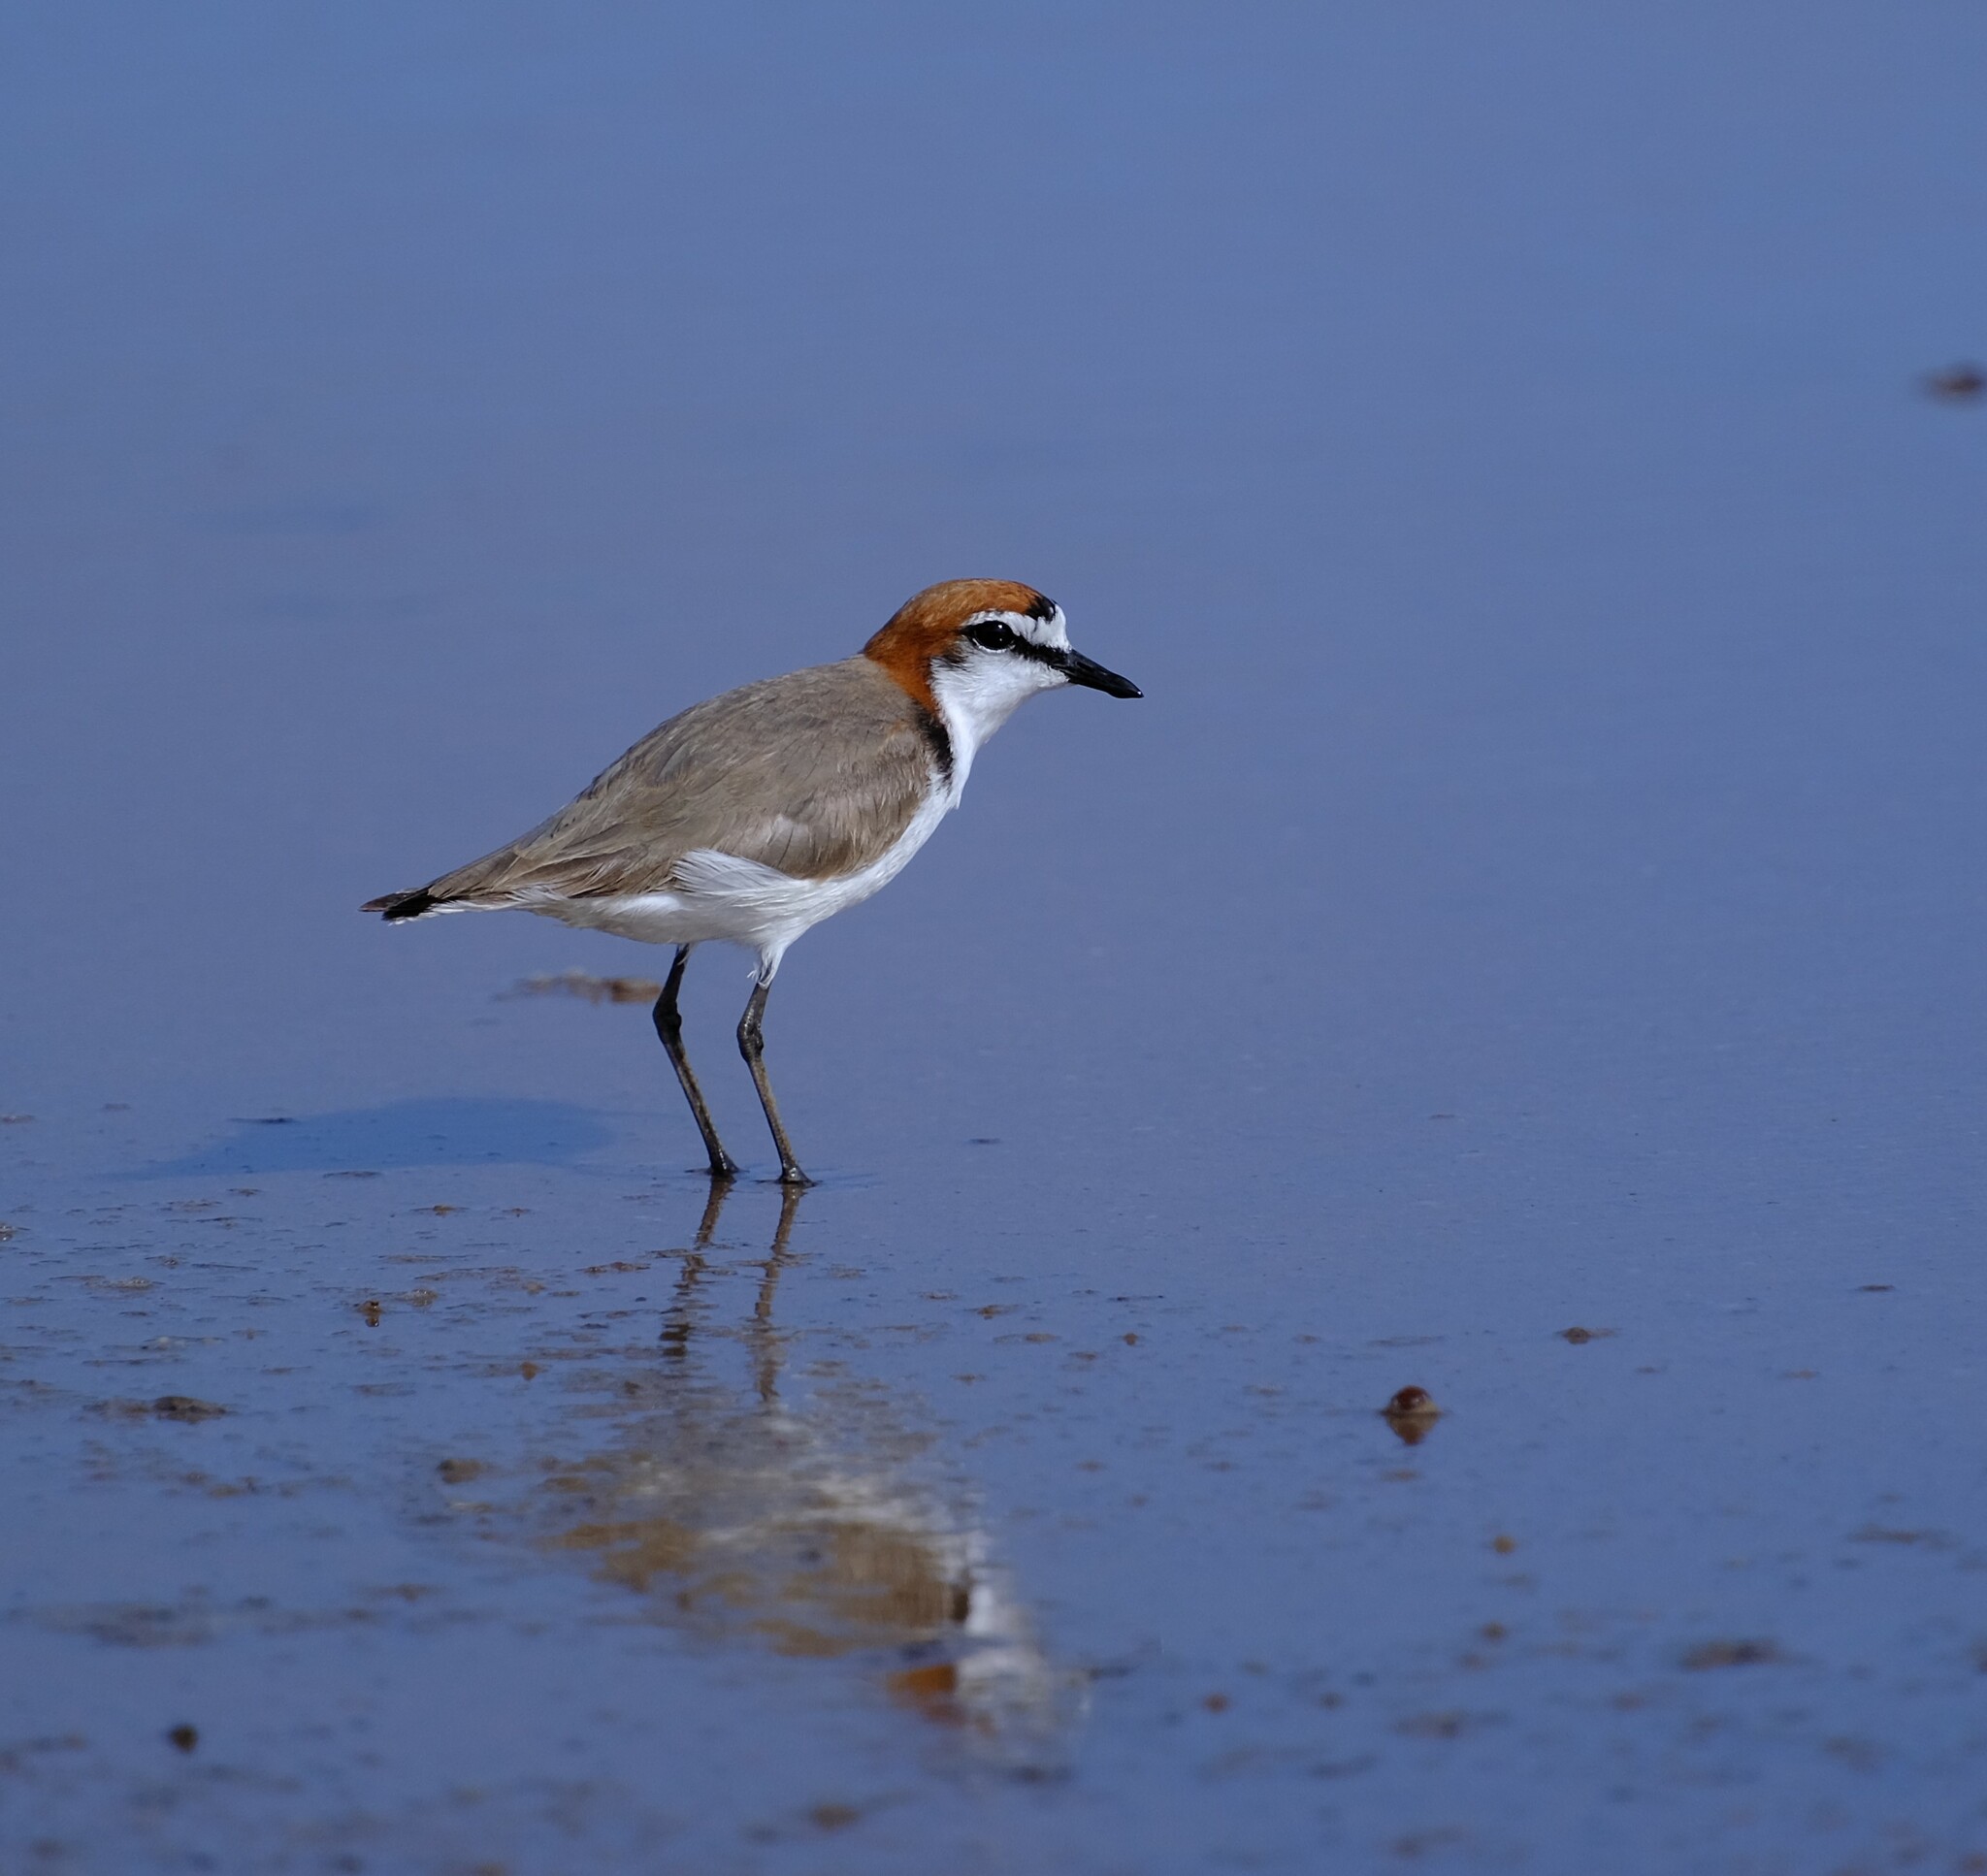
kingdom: Animalia
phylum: Chordata
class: Aves
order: Charadriiformes
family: Charadriidae
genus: Anarhynchus
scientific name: Anarhynchus
